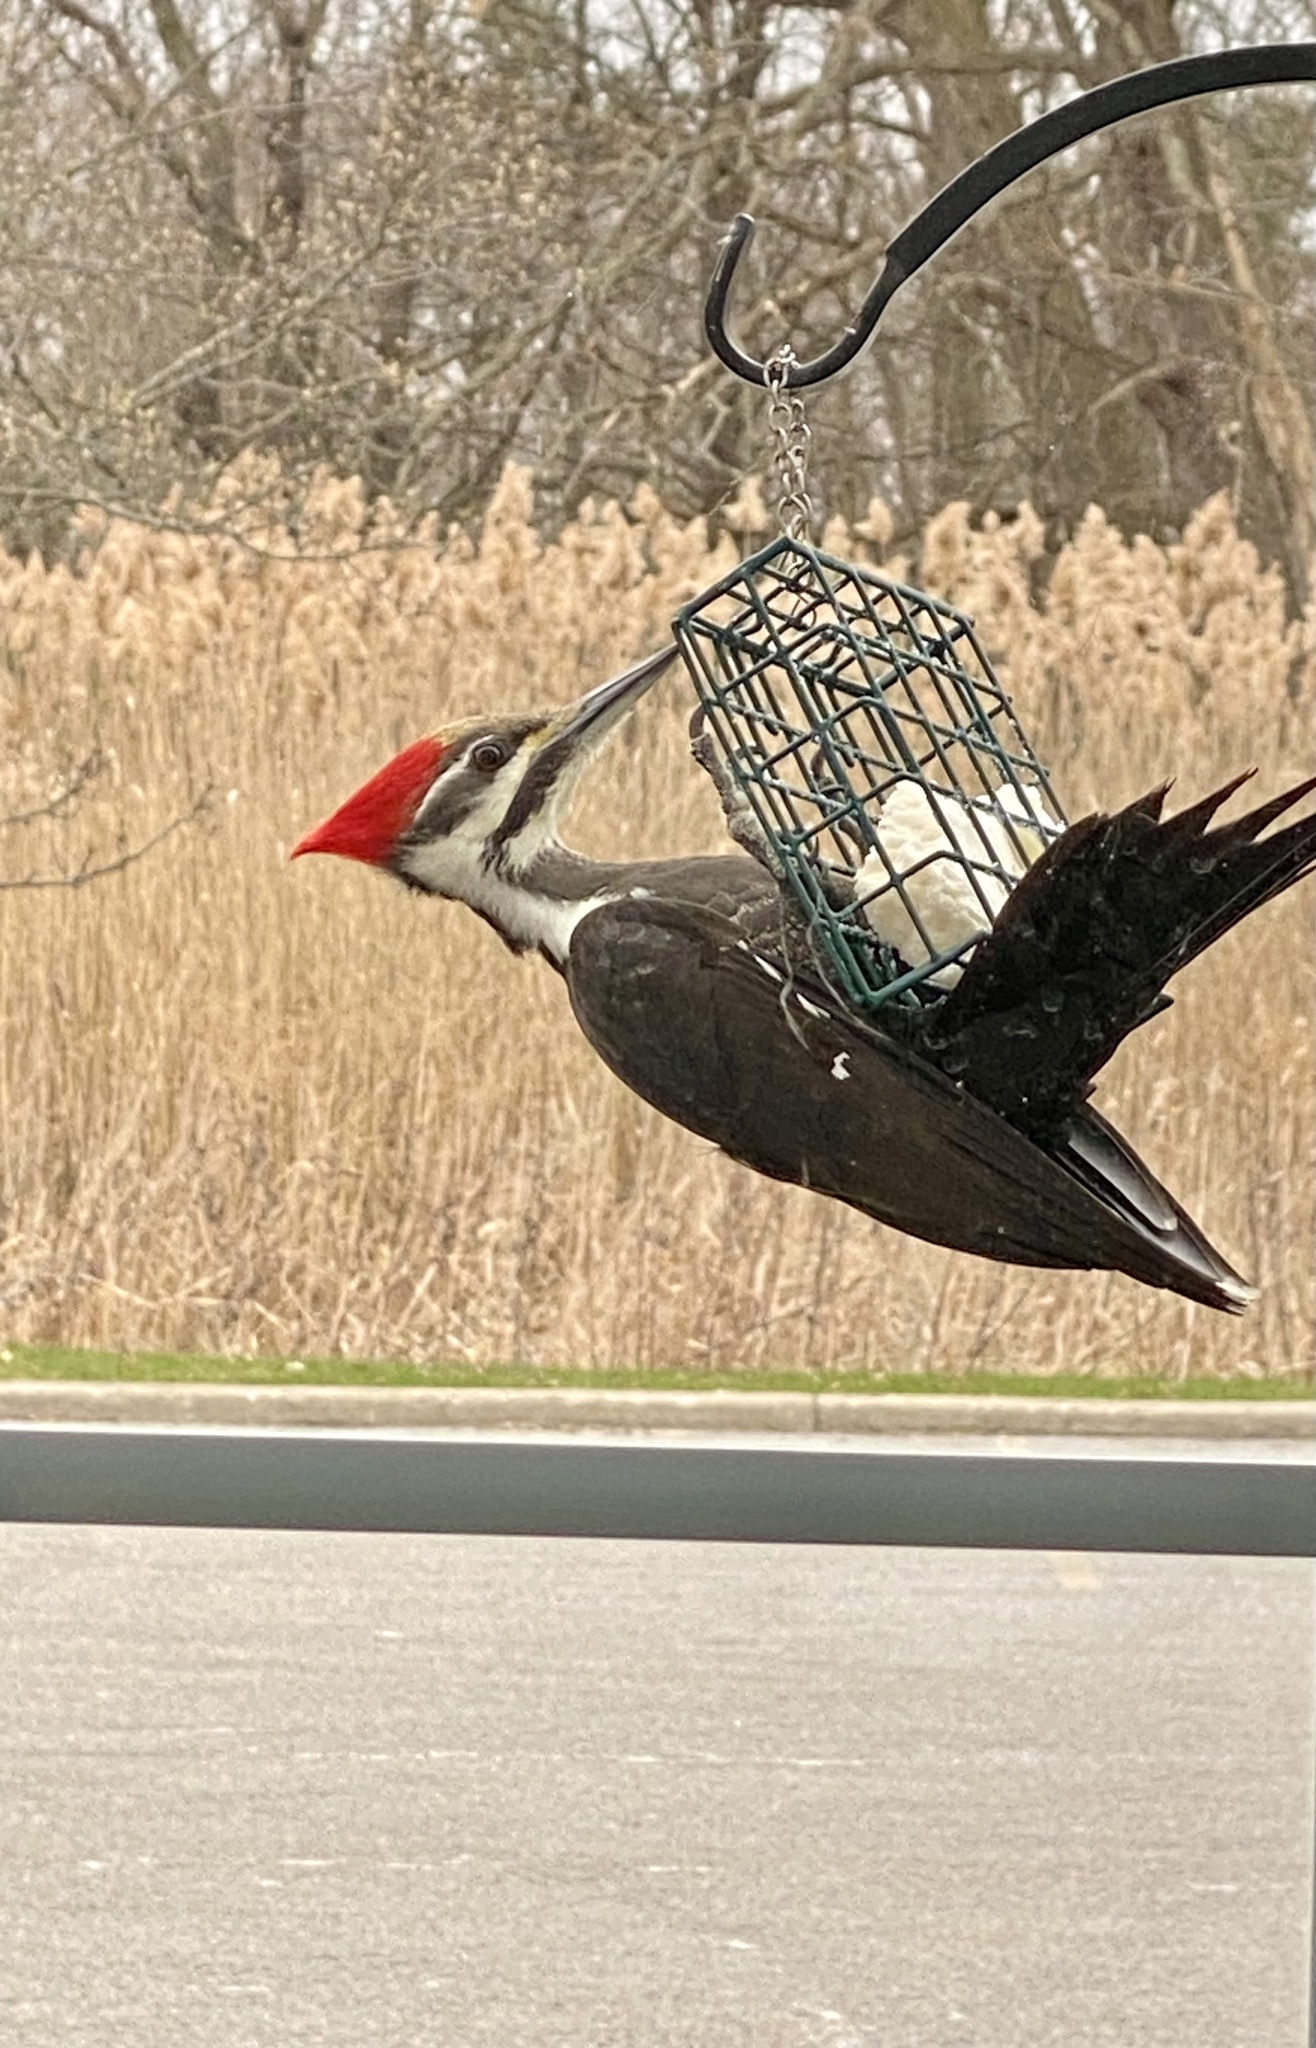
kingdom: Animalia
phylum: Chordata
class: Aves
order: Piciformes
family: Picidae
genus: Dryocopus
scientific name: Dryocopus pileatus
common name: Pileated woodpecker
